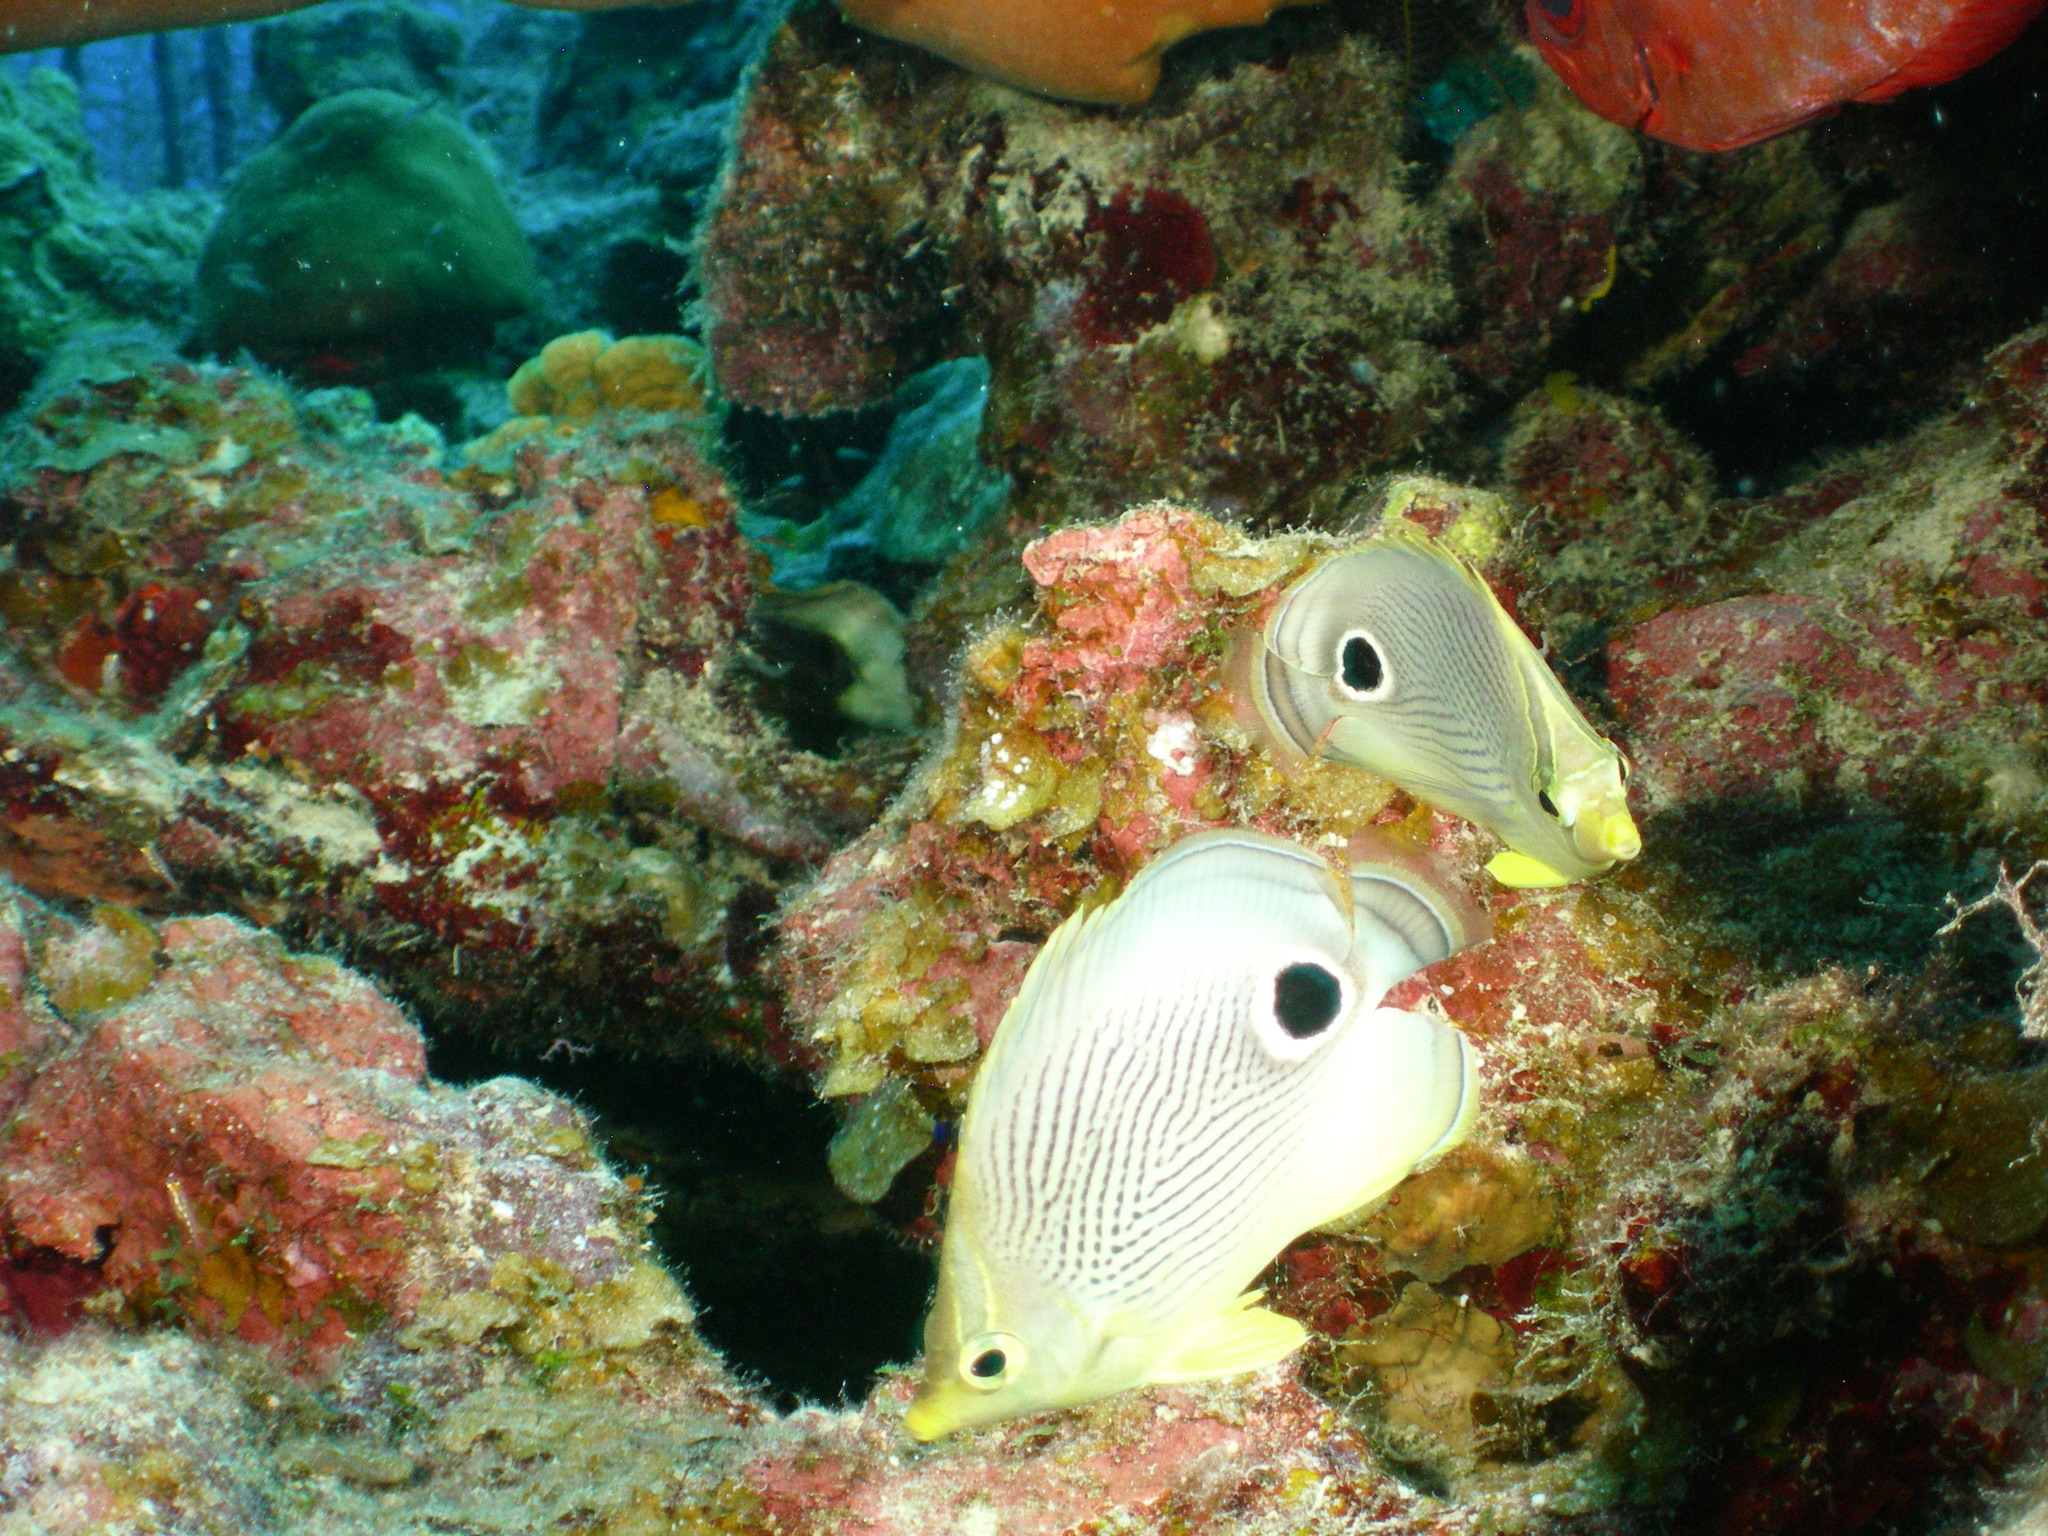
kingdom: Animalia
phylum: Chordata
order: Tetraodontiformes
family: Balistidae
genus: Balistes
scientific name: Balistes vetula
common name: Queen triggerfish
